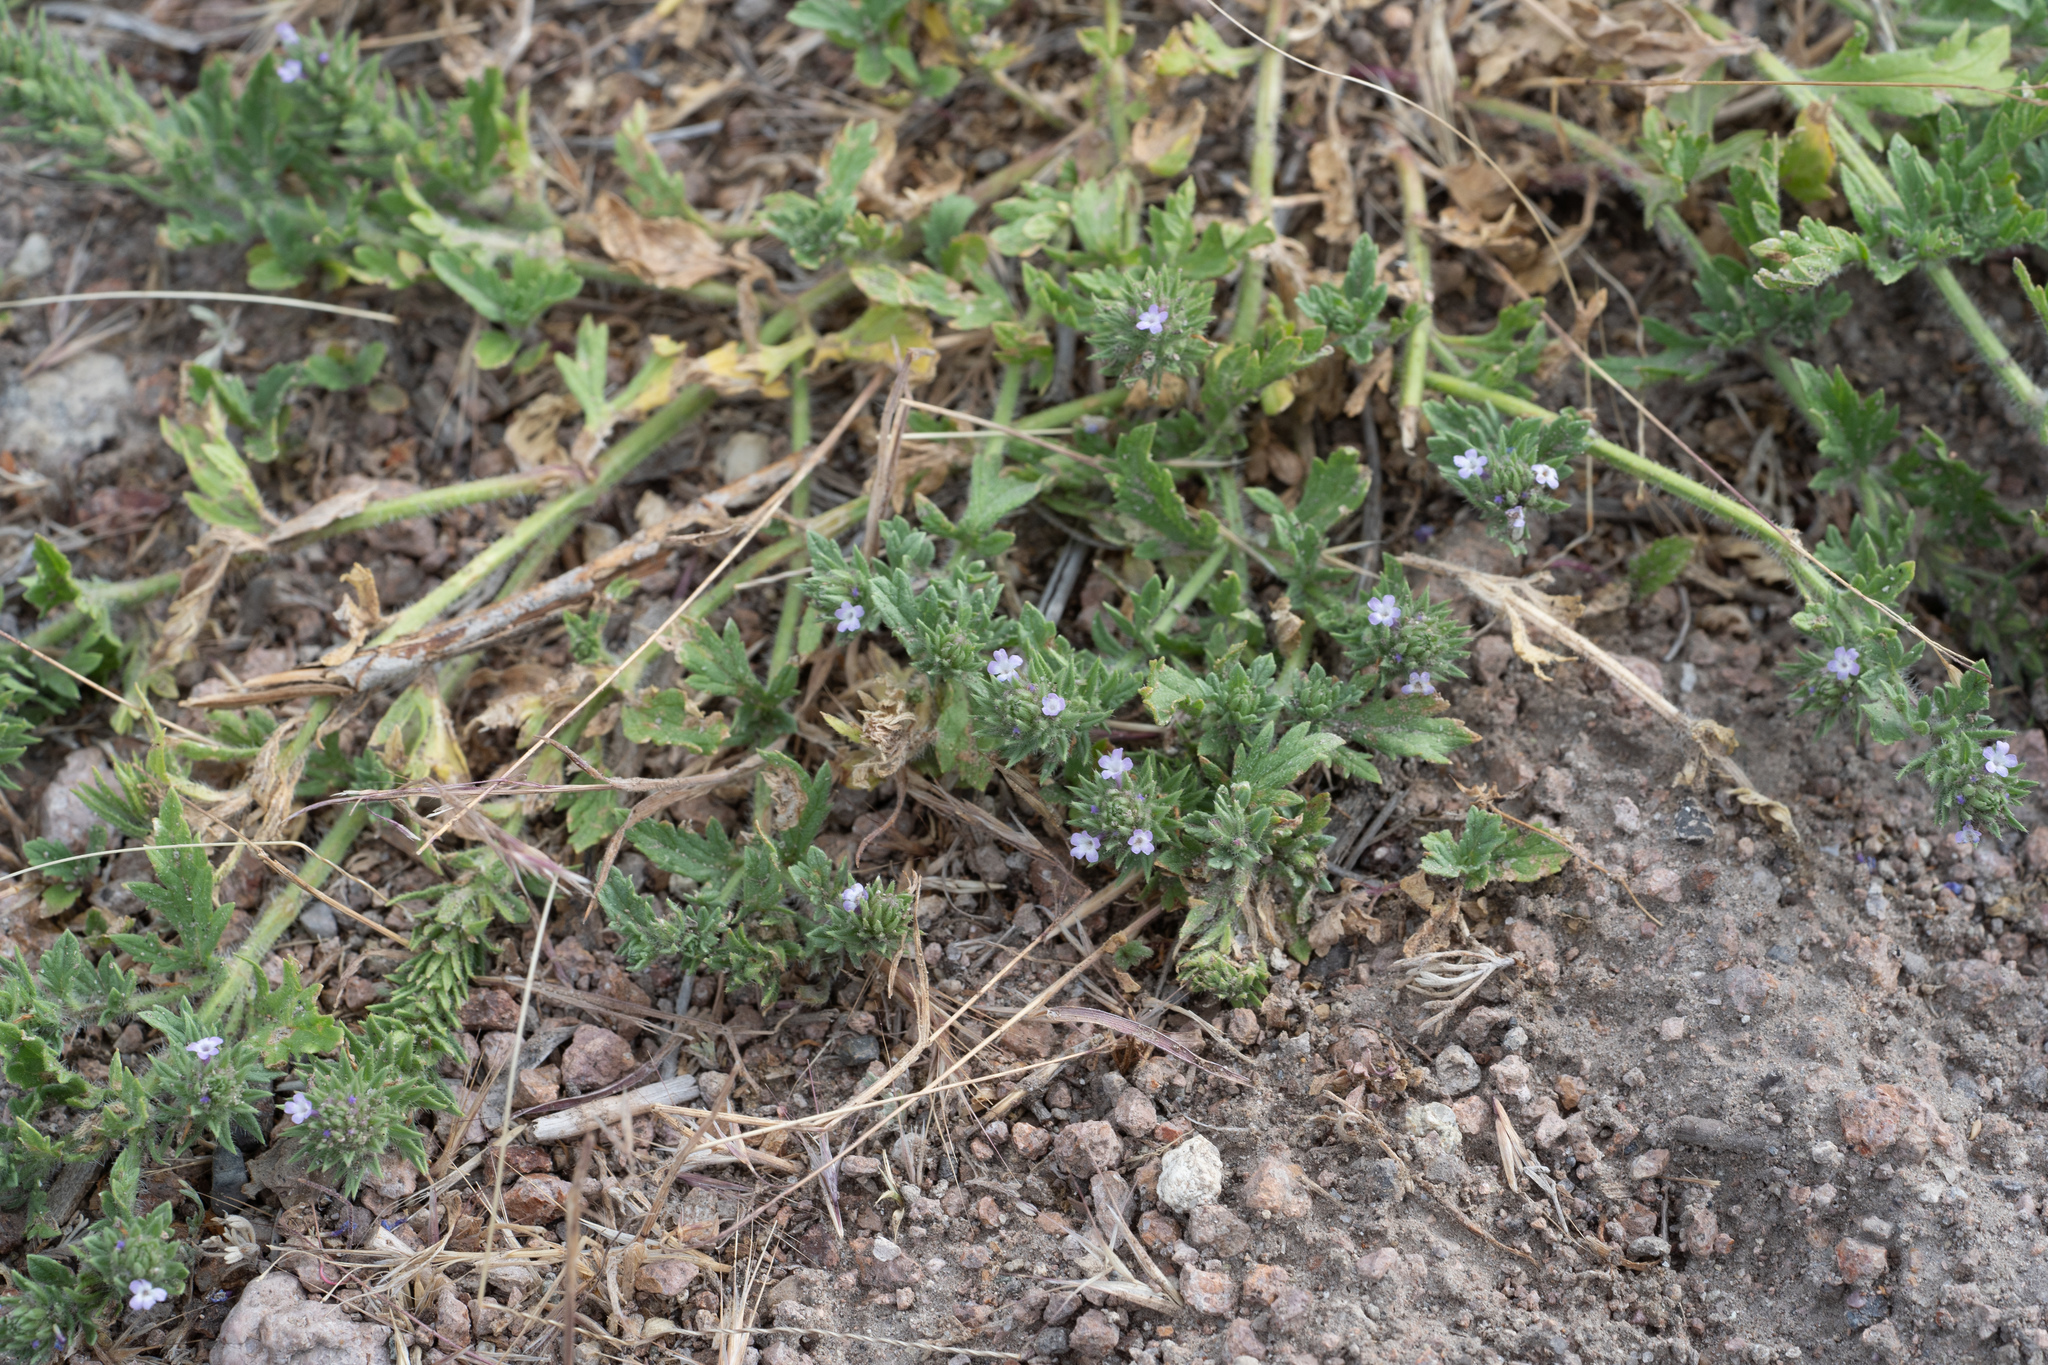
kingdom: Plantae
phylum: Tracheophyta
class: Magnoliopsida
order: Lamiales
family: Verbenaceae
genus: Verbena
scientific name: Verbena bracteata
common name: Bracted vervain
